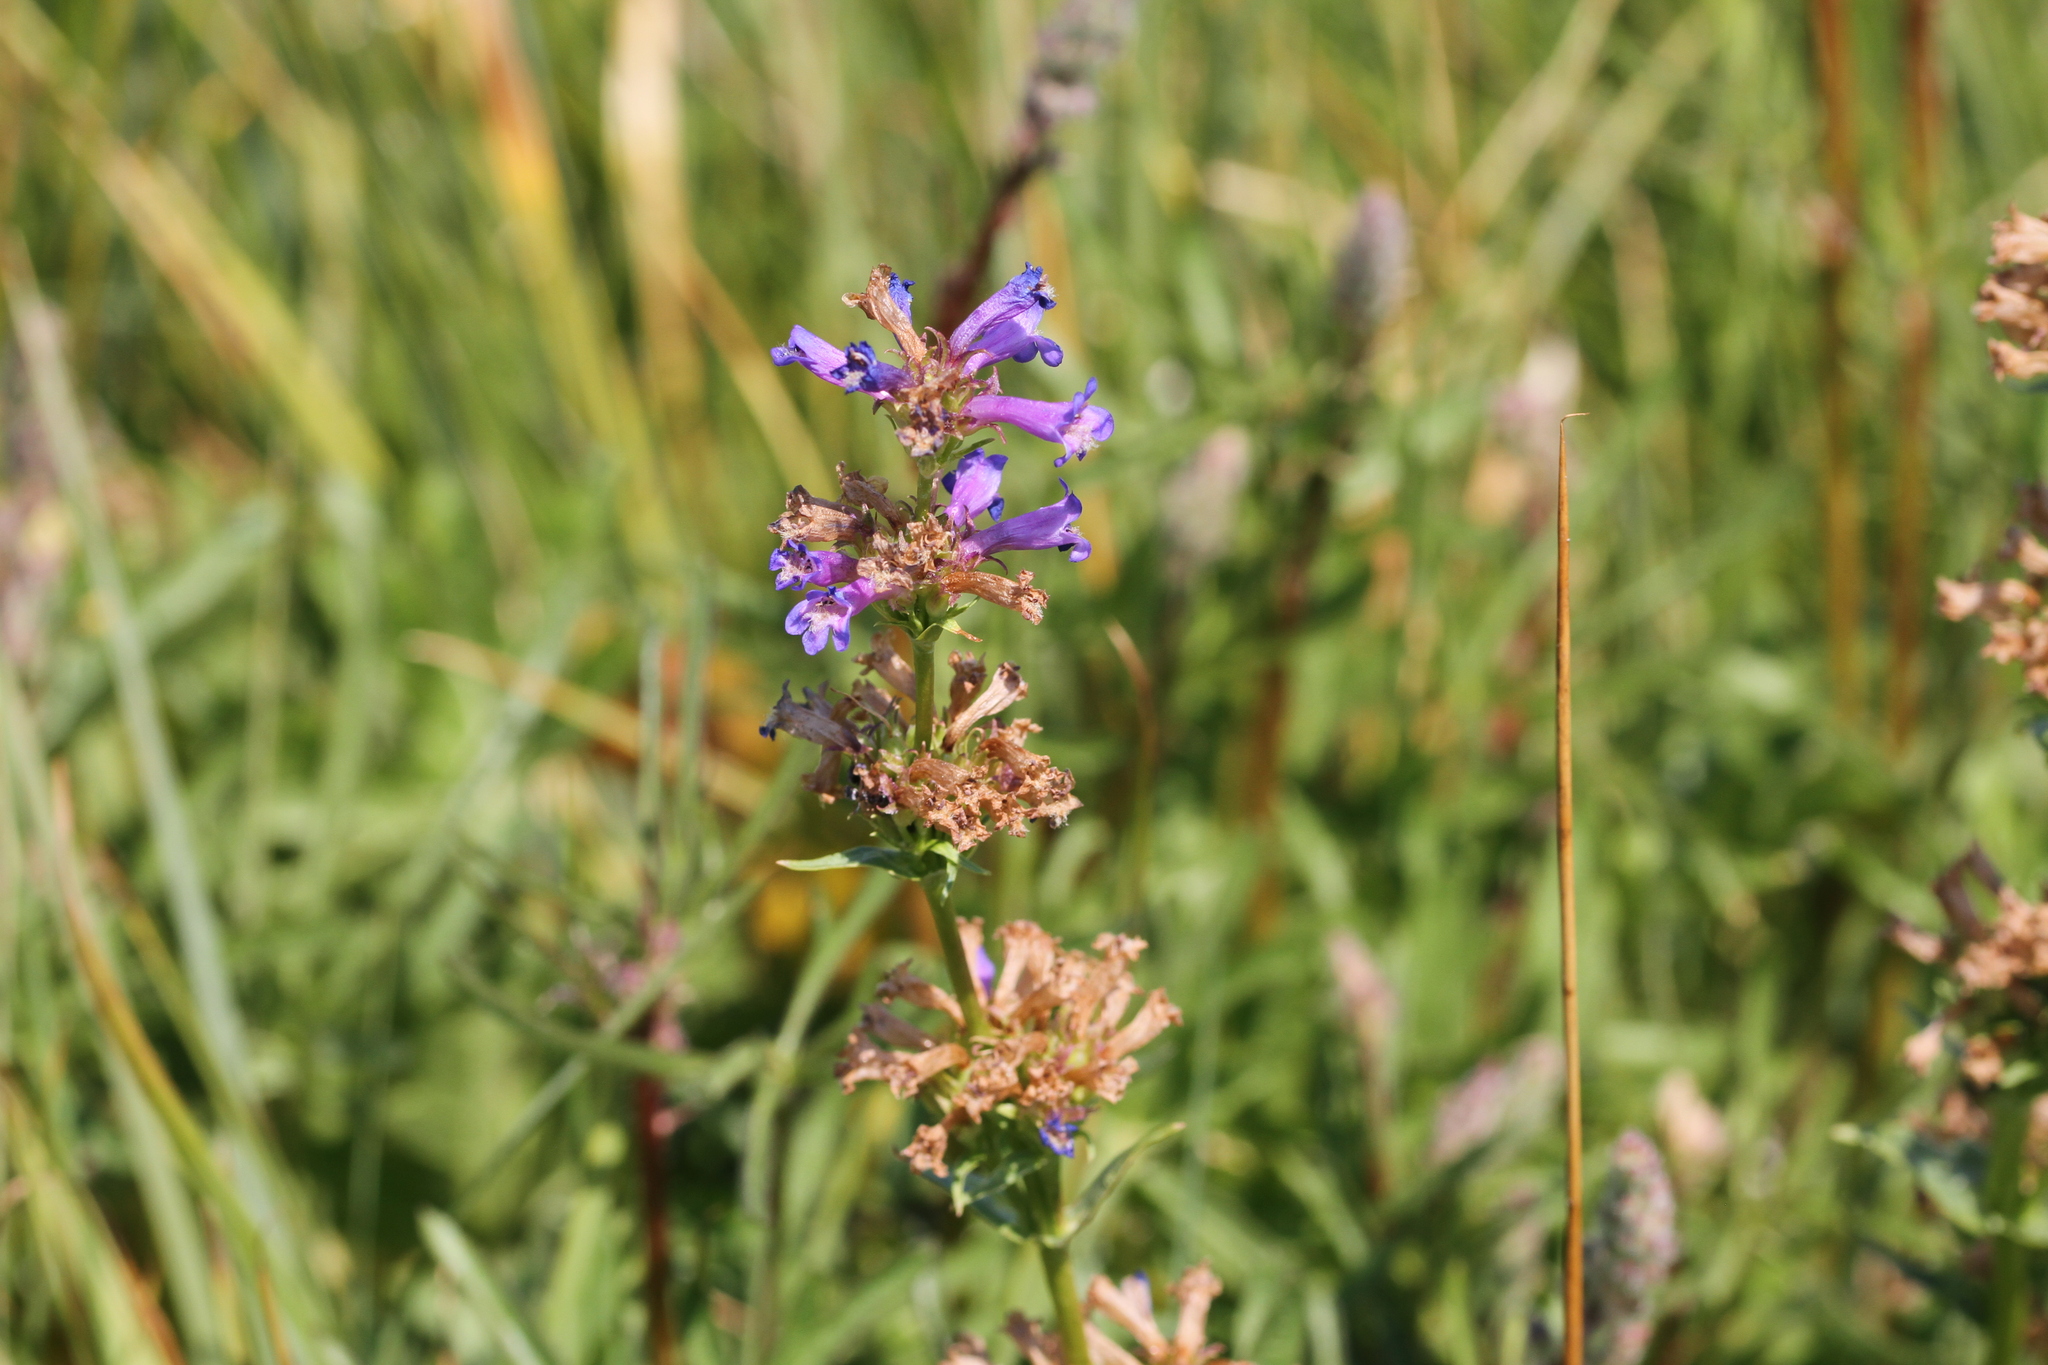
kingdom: Plantae
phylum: Tracheophyta
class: Magnoliopsida
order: Lamiales
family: Plantaginaceae
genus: Penstemon
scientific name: Penstemon rydbergii
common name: Rydberg's beardtongue
